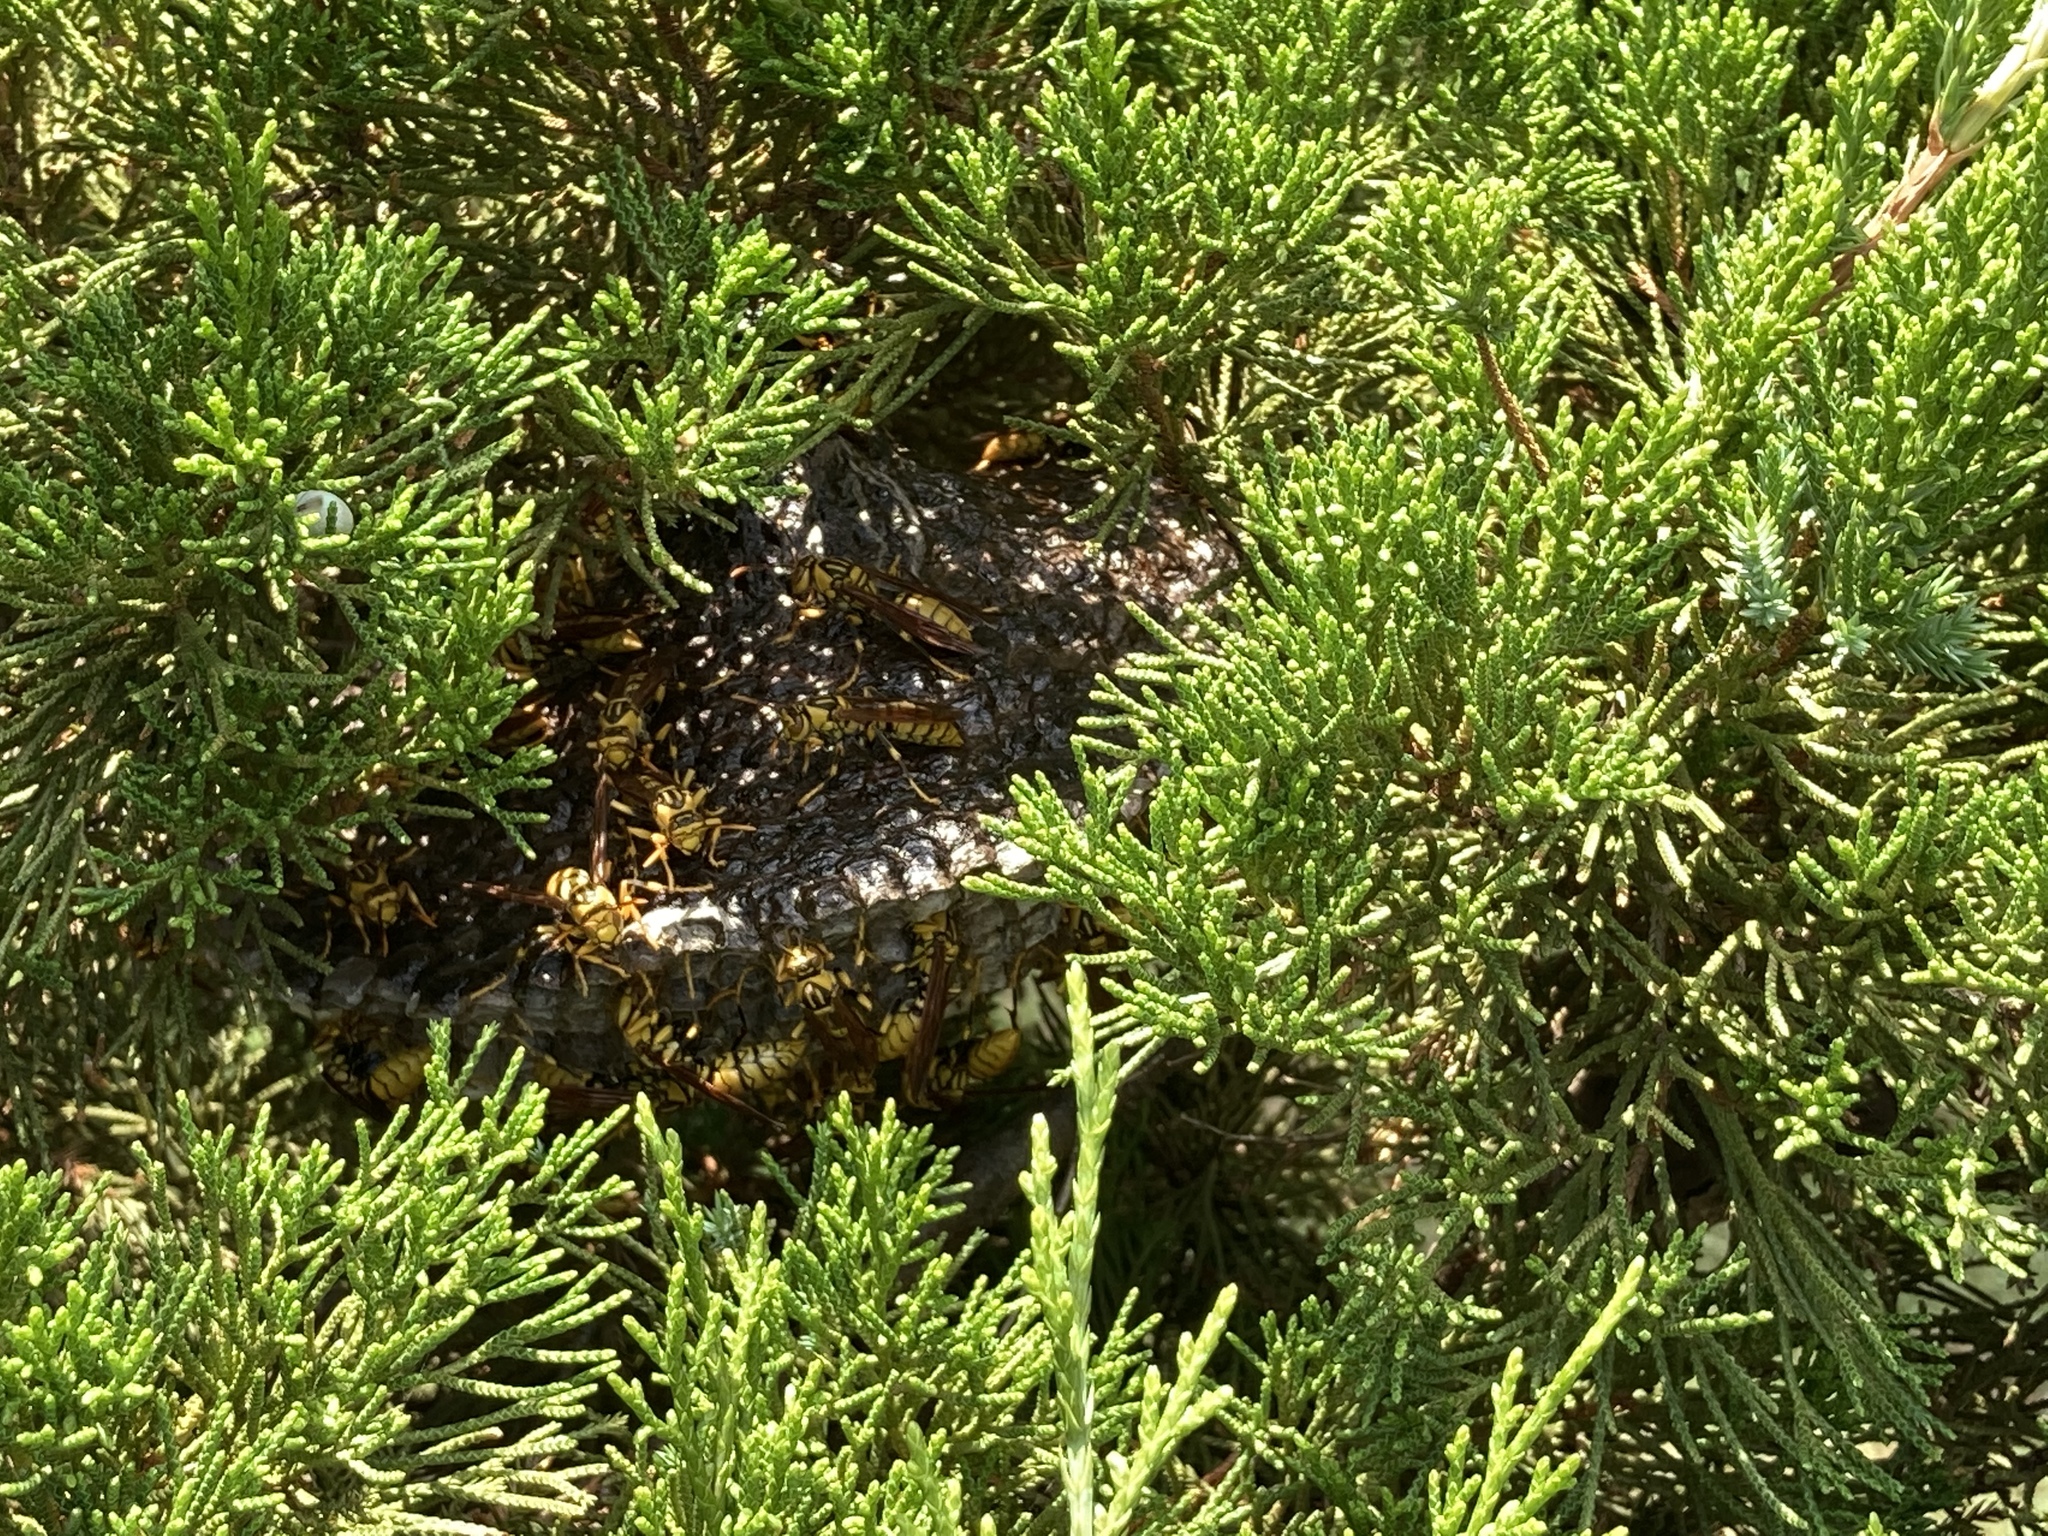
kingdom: Animalia
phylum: Arthropoda
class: Insecta
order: Hymenoptera
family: Eumenidae
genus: Polistes
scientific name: Polistes rothneyi
